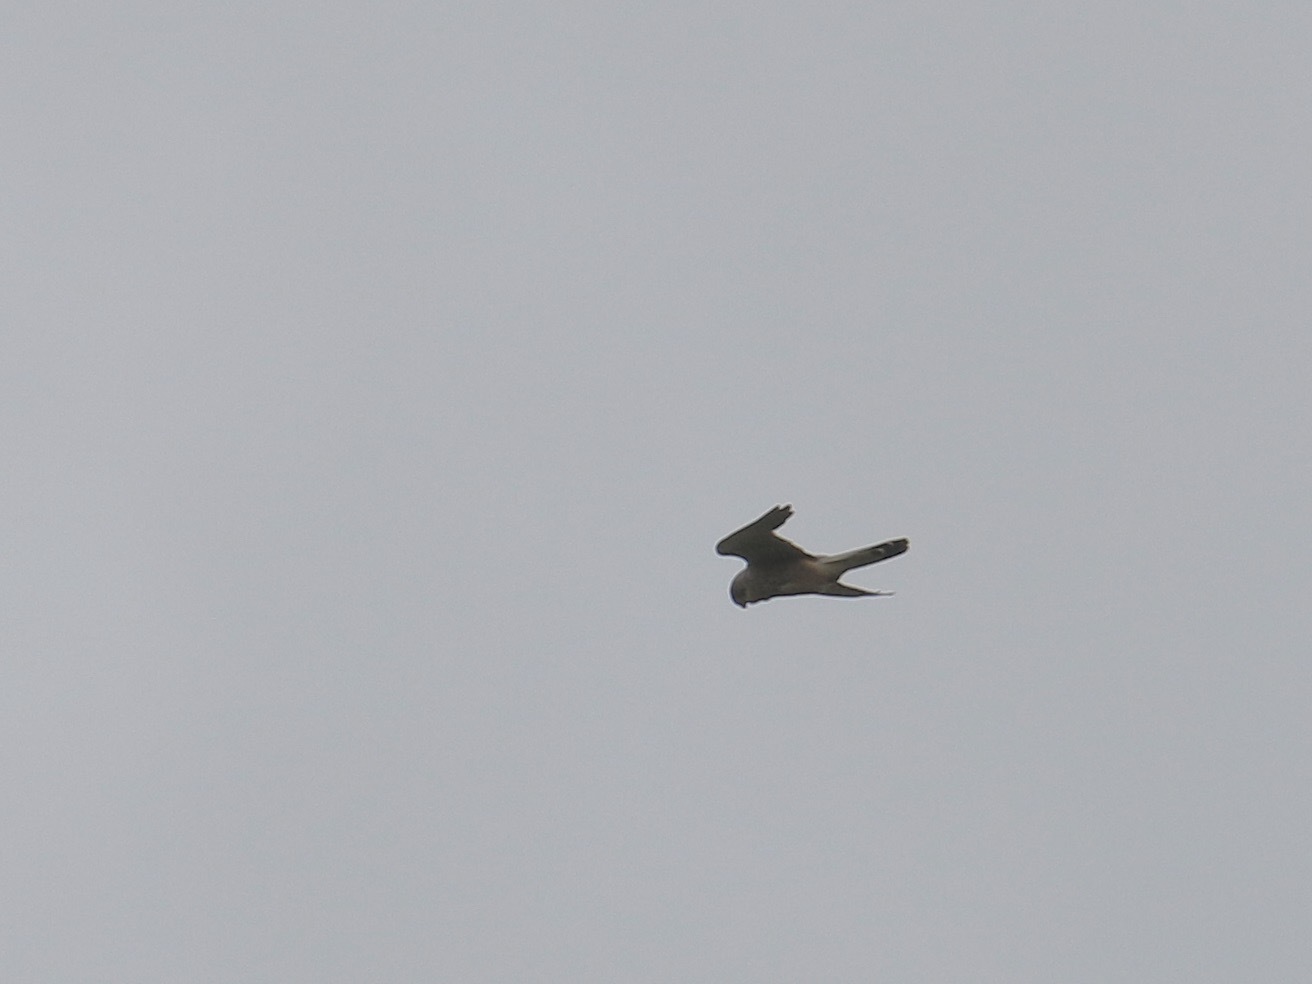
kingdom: Animalia
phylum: Chordata
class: Aves
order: Falconiformes
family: Falconidae
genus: Falco
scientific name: Falco tinnunculus
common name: Common kestrel
